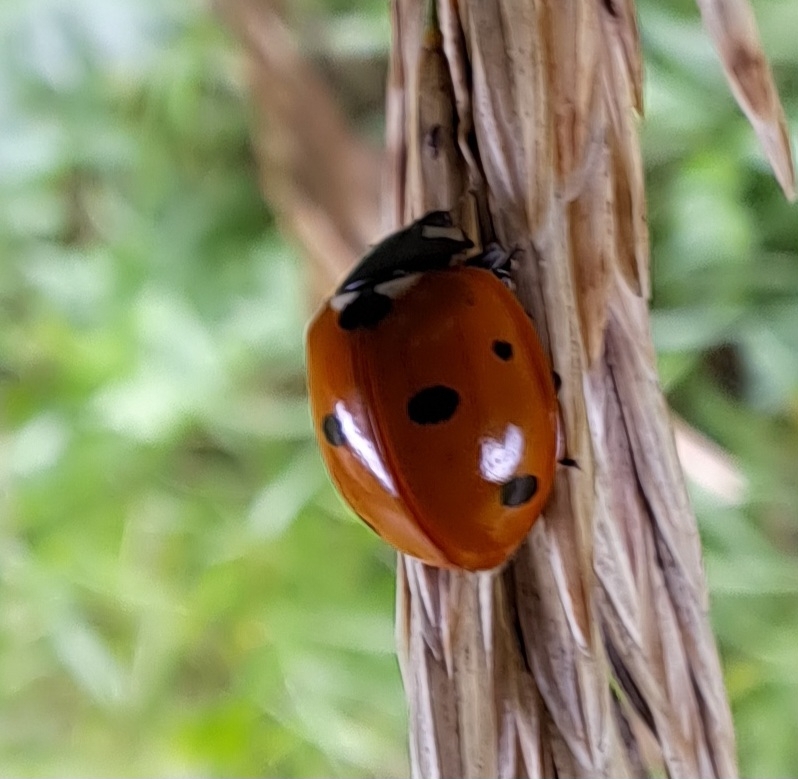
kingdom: Animalia
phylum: Arthropoda
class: Insecta
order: Coleoptera
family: Coccinellidae
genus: Coccinella
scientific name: Coccinella septempunctata
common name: Sevenspotted lady beetle
